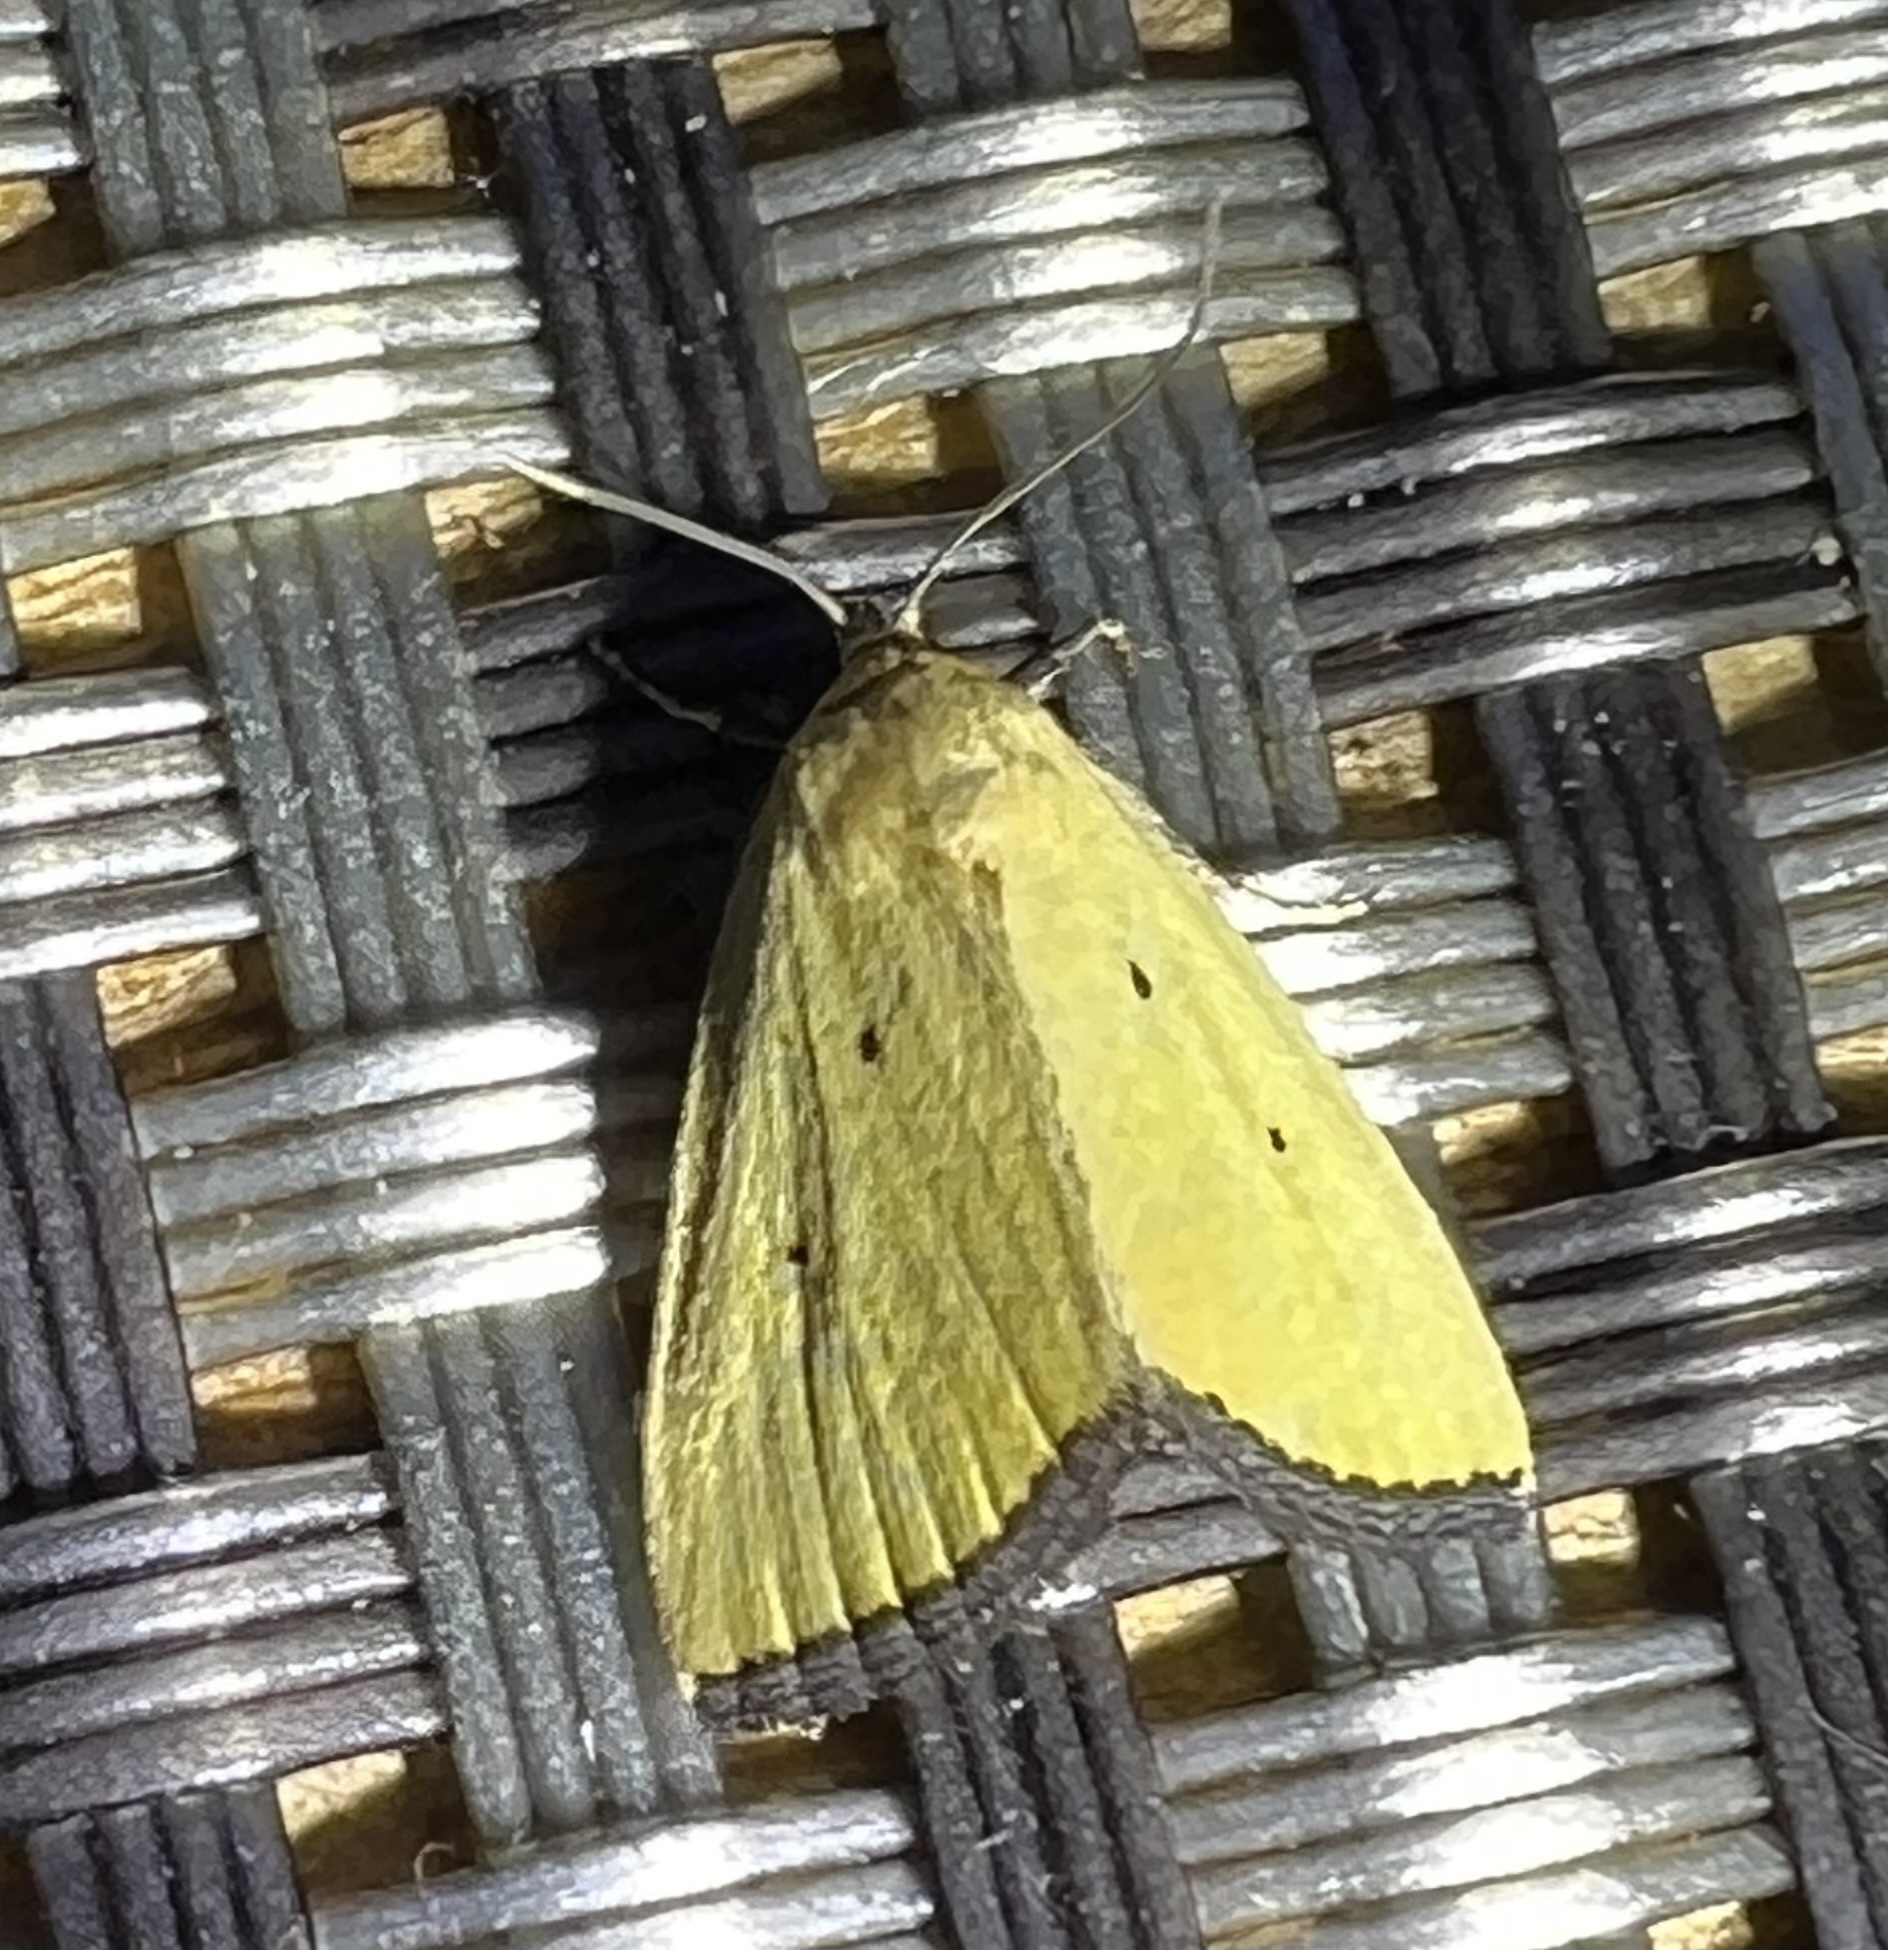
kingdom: Animalia
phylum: Arthropoda
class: Insecta
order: Lepidoptera
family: Noctuidae
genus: Marimatha
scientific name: Marimatha nigrofimbria
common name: Black-bordered lemon moth
